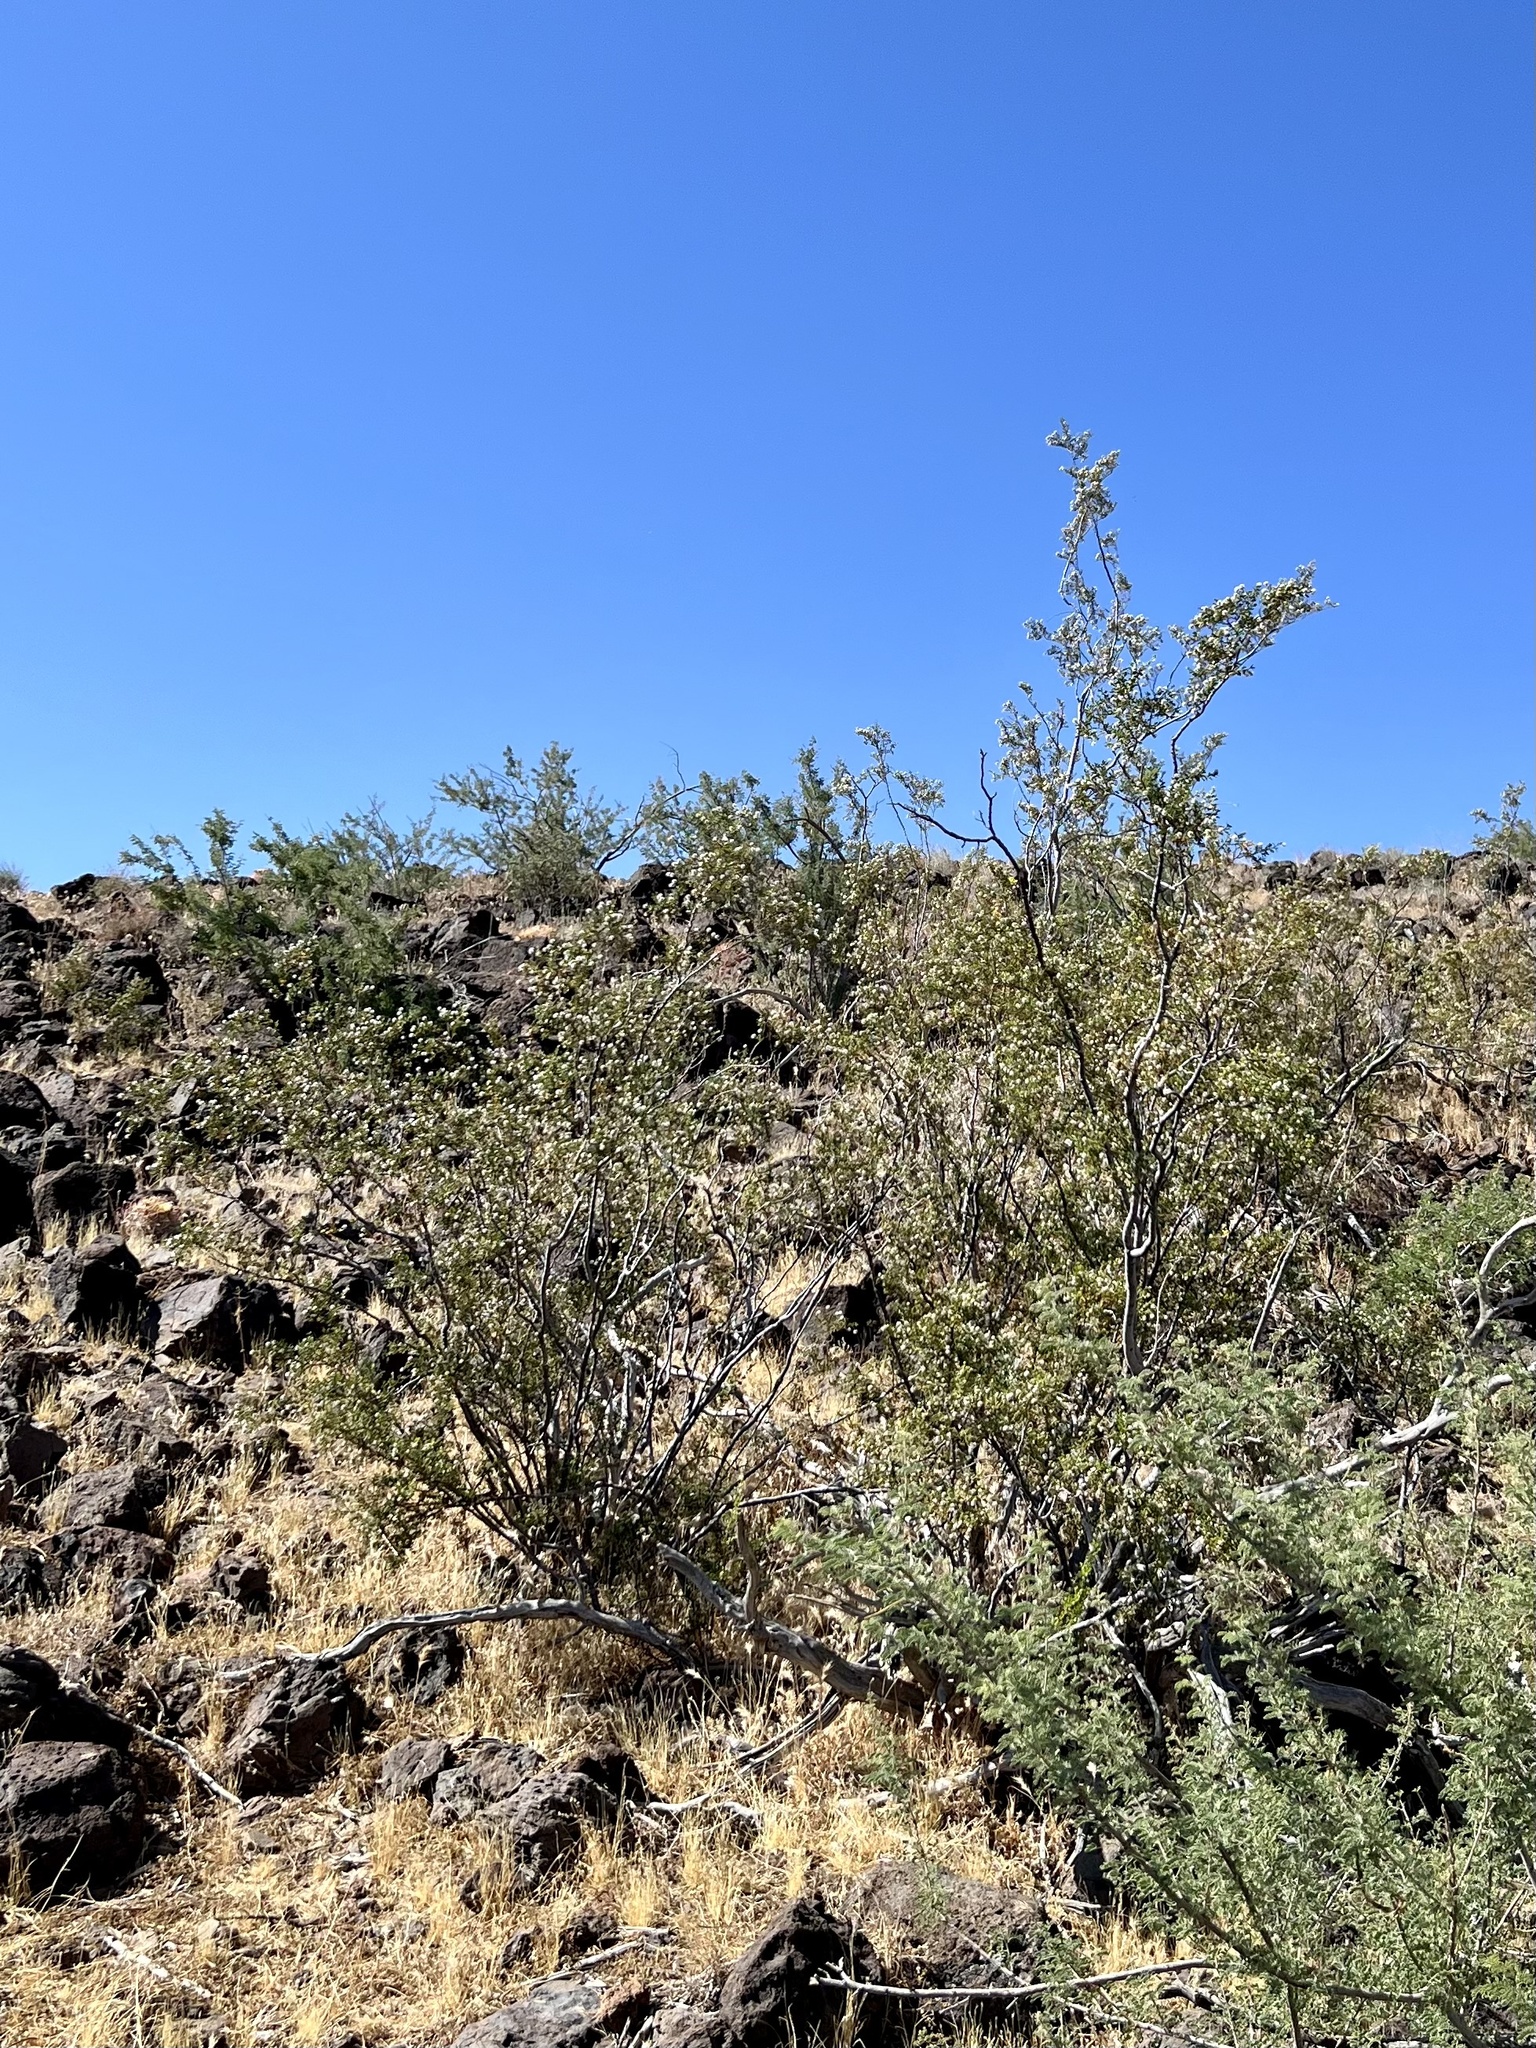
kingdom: Plantae
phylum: Tracheophyta
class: Magnoliopsida
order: Zygophyllales
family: Zygophyllaceae
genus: Larrea
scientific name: Larrea tridentata
